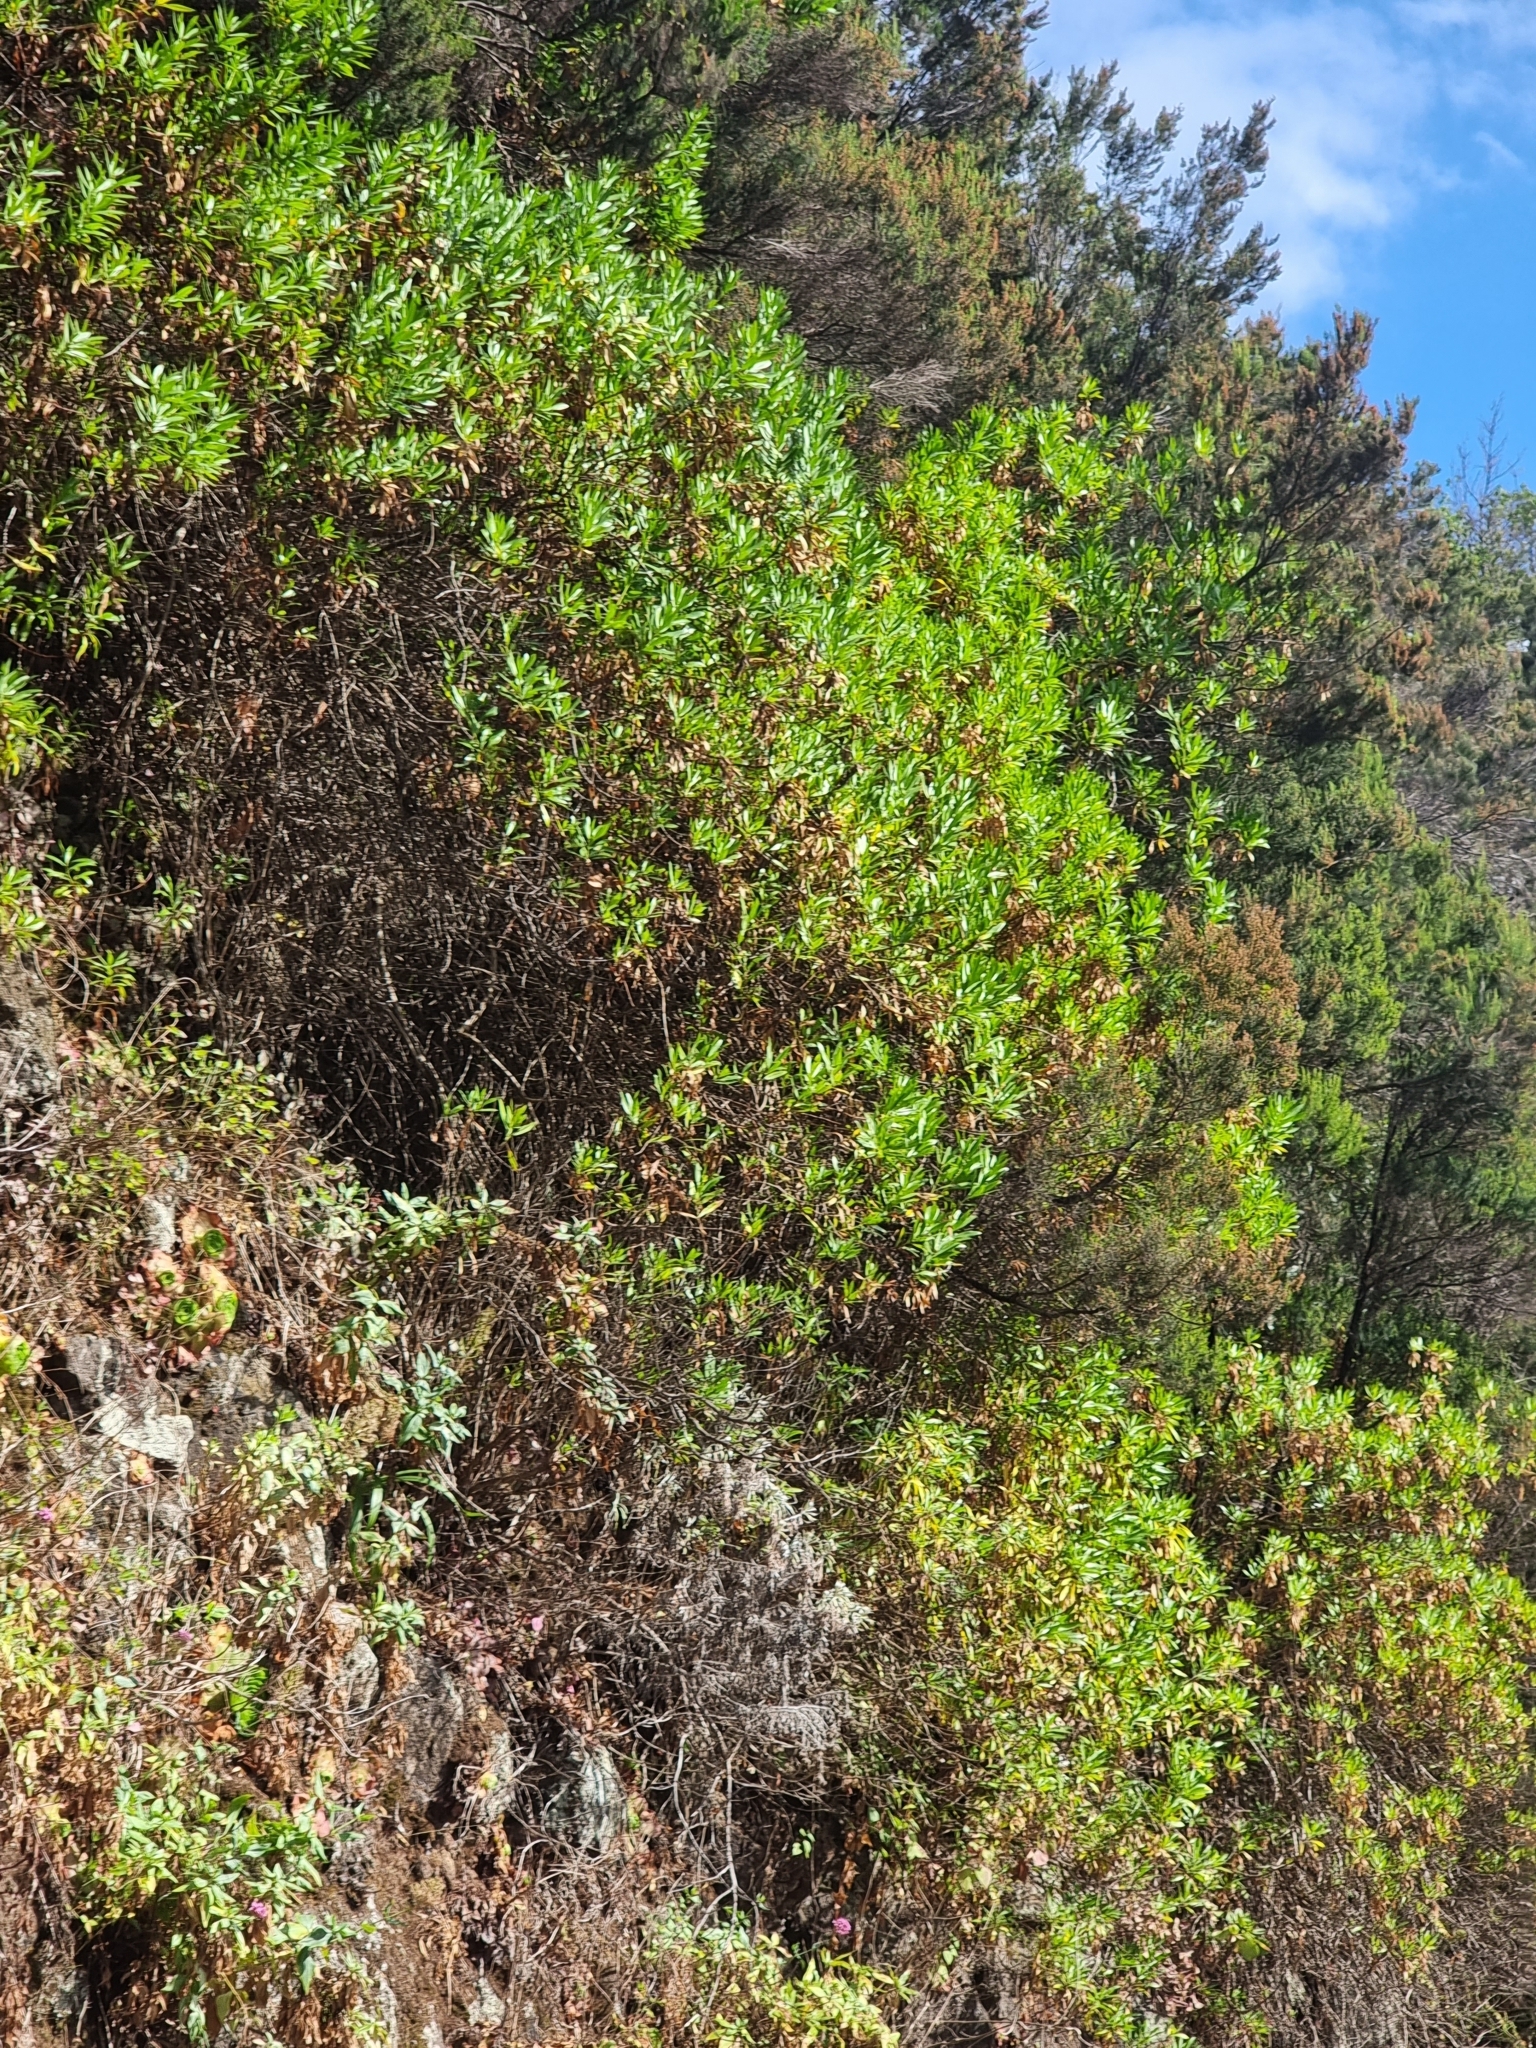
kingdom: Plantae
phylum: Tracheophyta
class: Magnoliopsida
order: Lamiales
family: Plantaginaceae
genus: Globularia
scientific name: Globularia salicina
